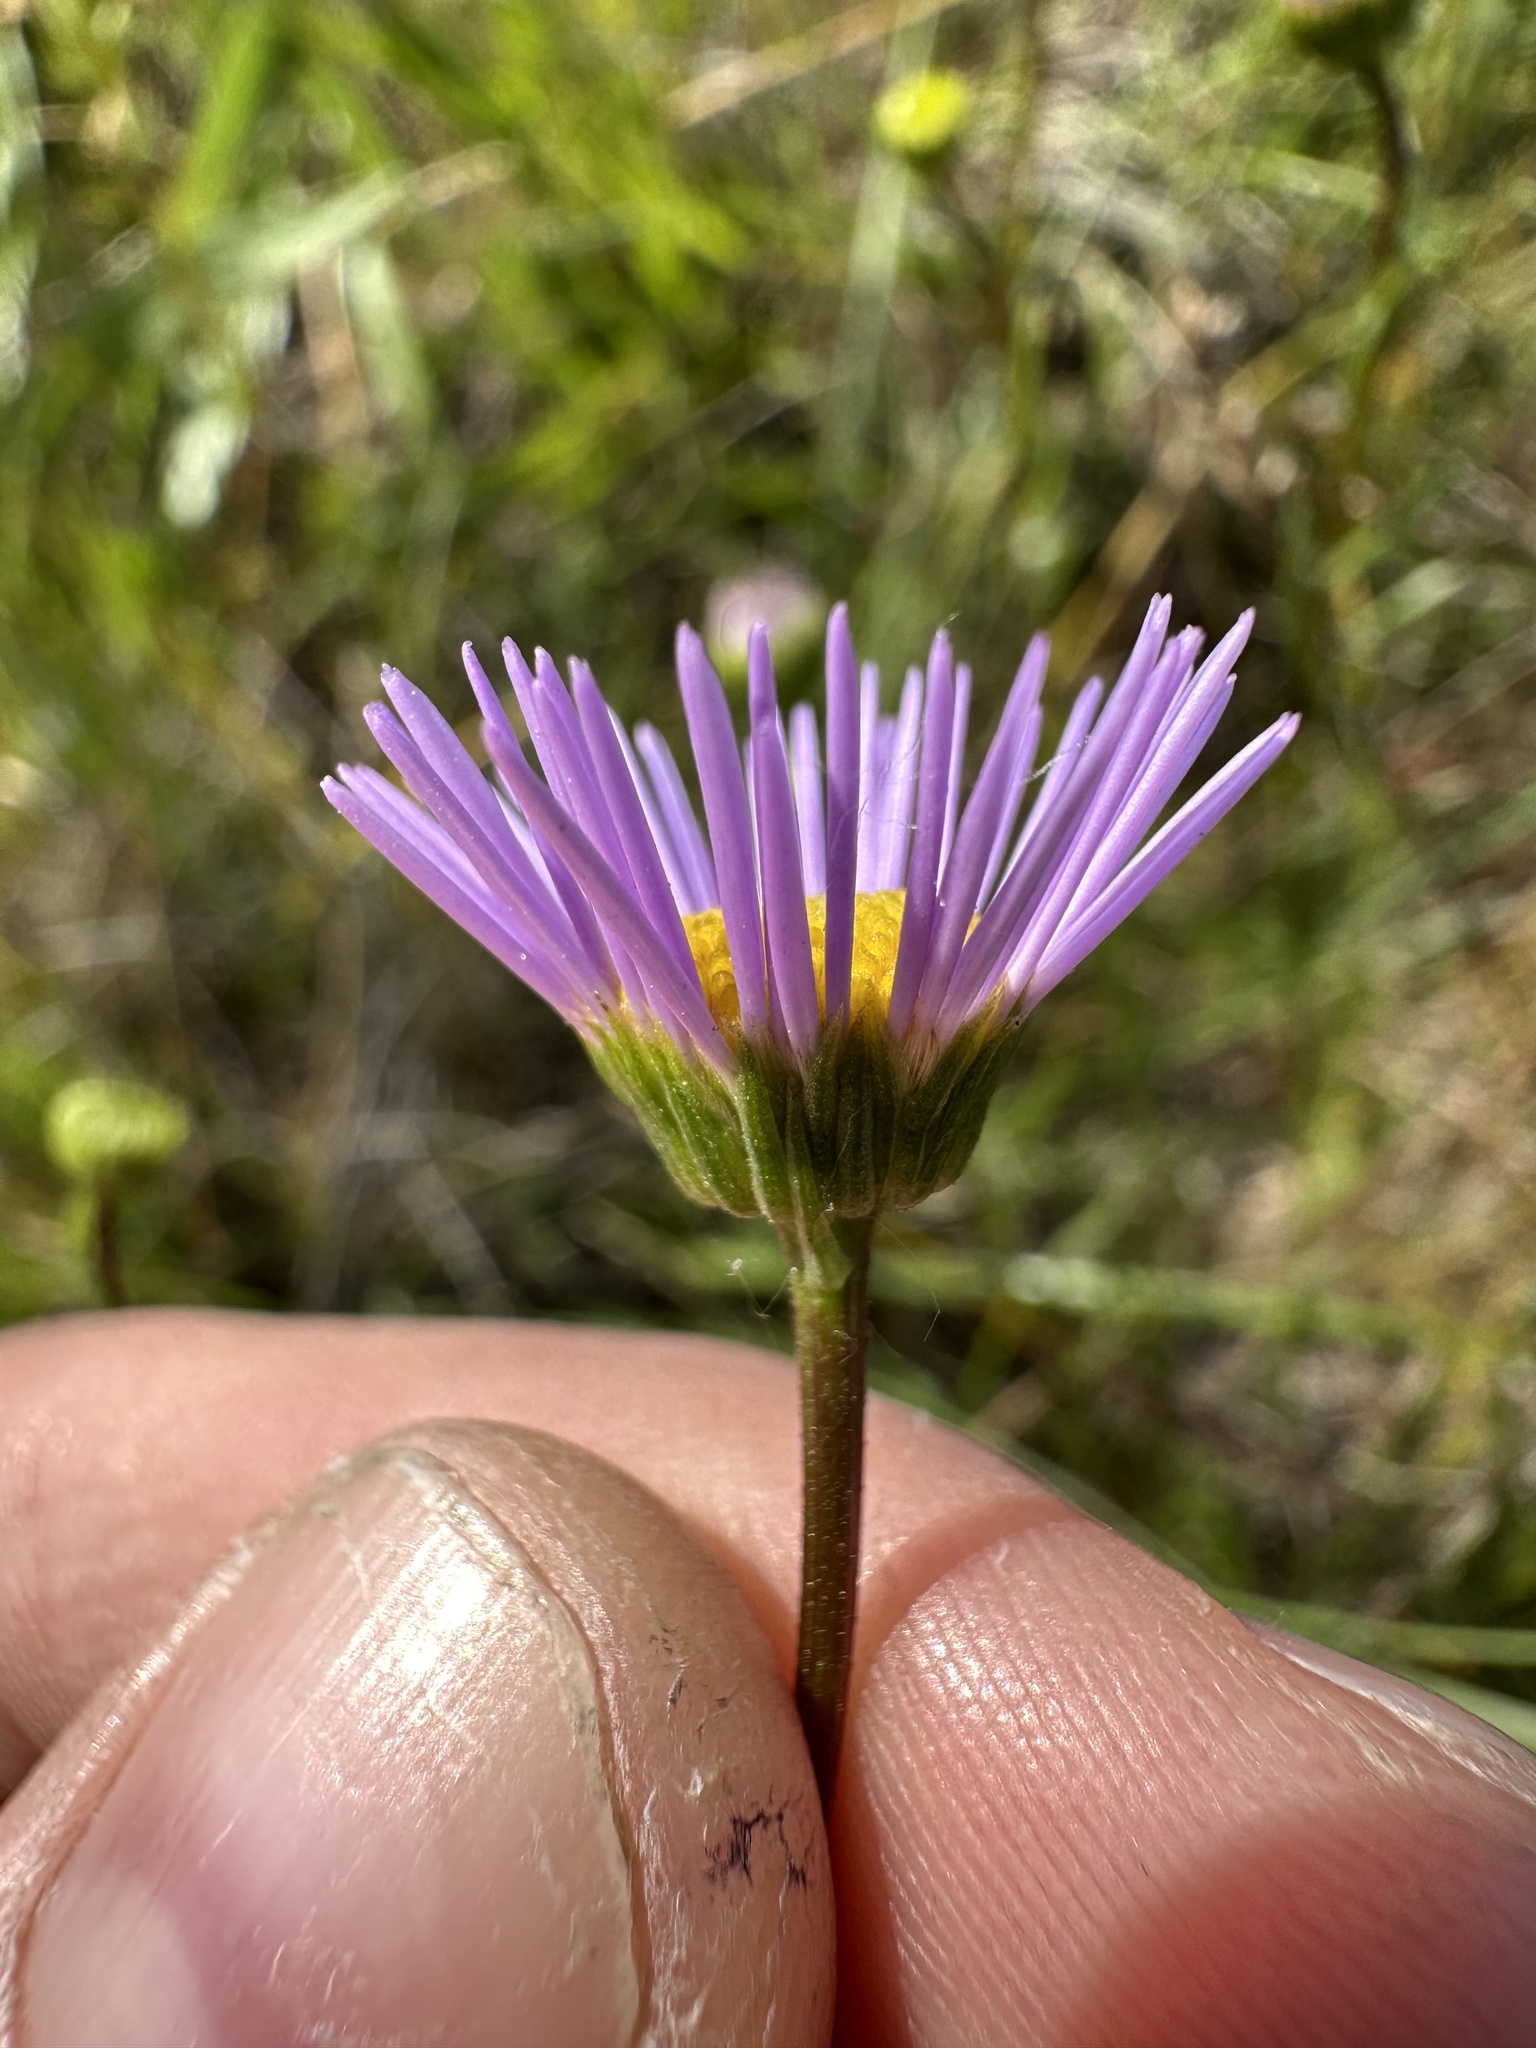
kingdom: Plantae
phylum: Tracheophyta
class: Magnoliopsida
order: Asterales
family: Asteraceae
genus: Erigeron
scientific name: Erigeron decumbens
